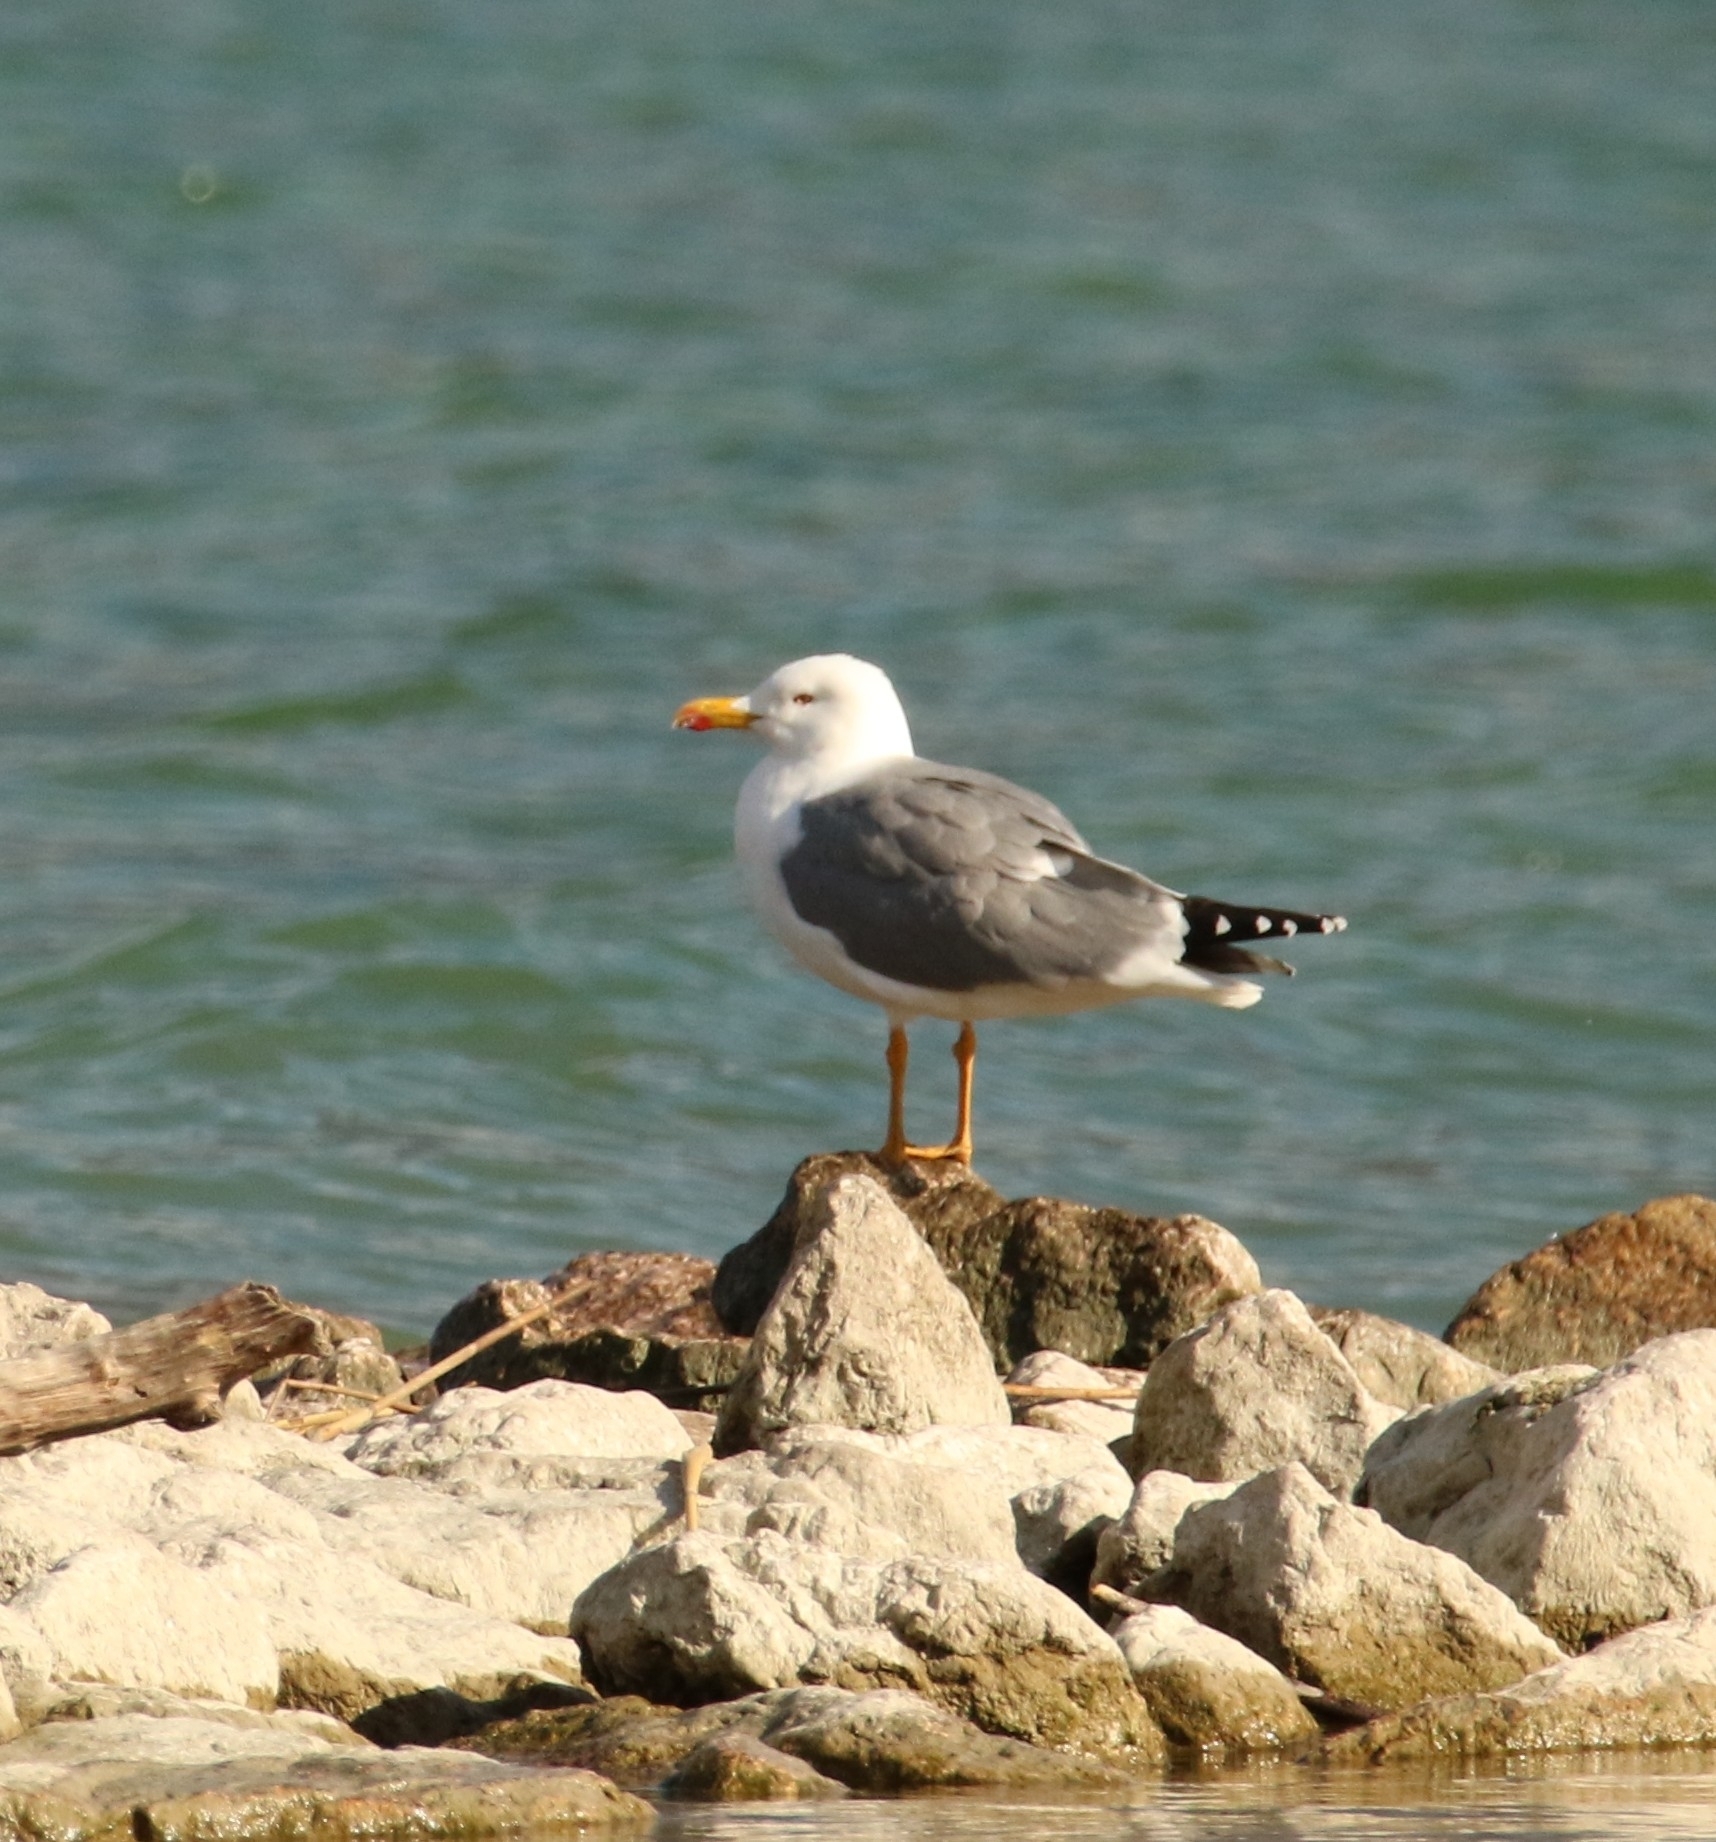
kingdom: Animalia
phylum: Chordata
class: Aves
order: Charadriiformes
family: Laridae
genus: Larus
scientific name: Larus michahellis
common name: Yellow-legged gull
